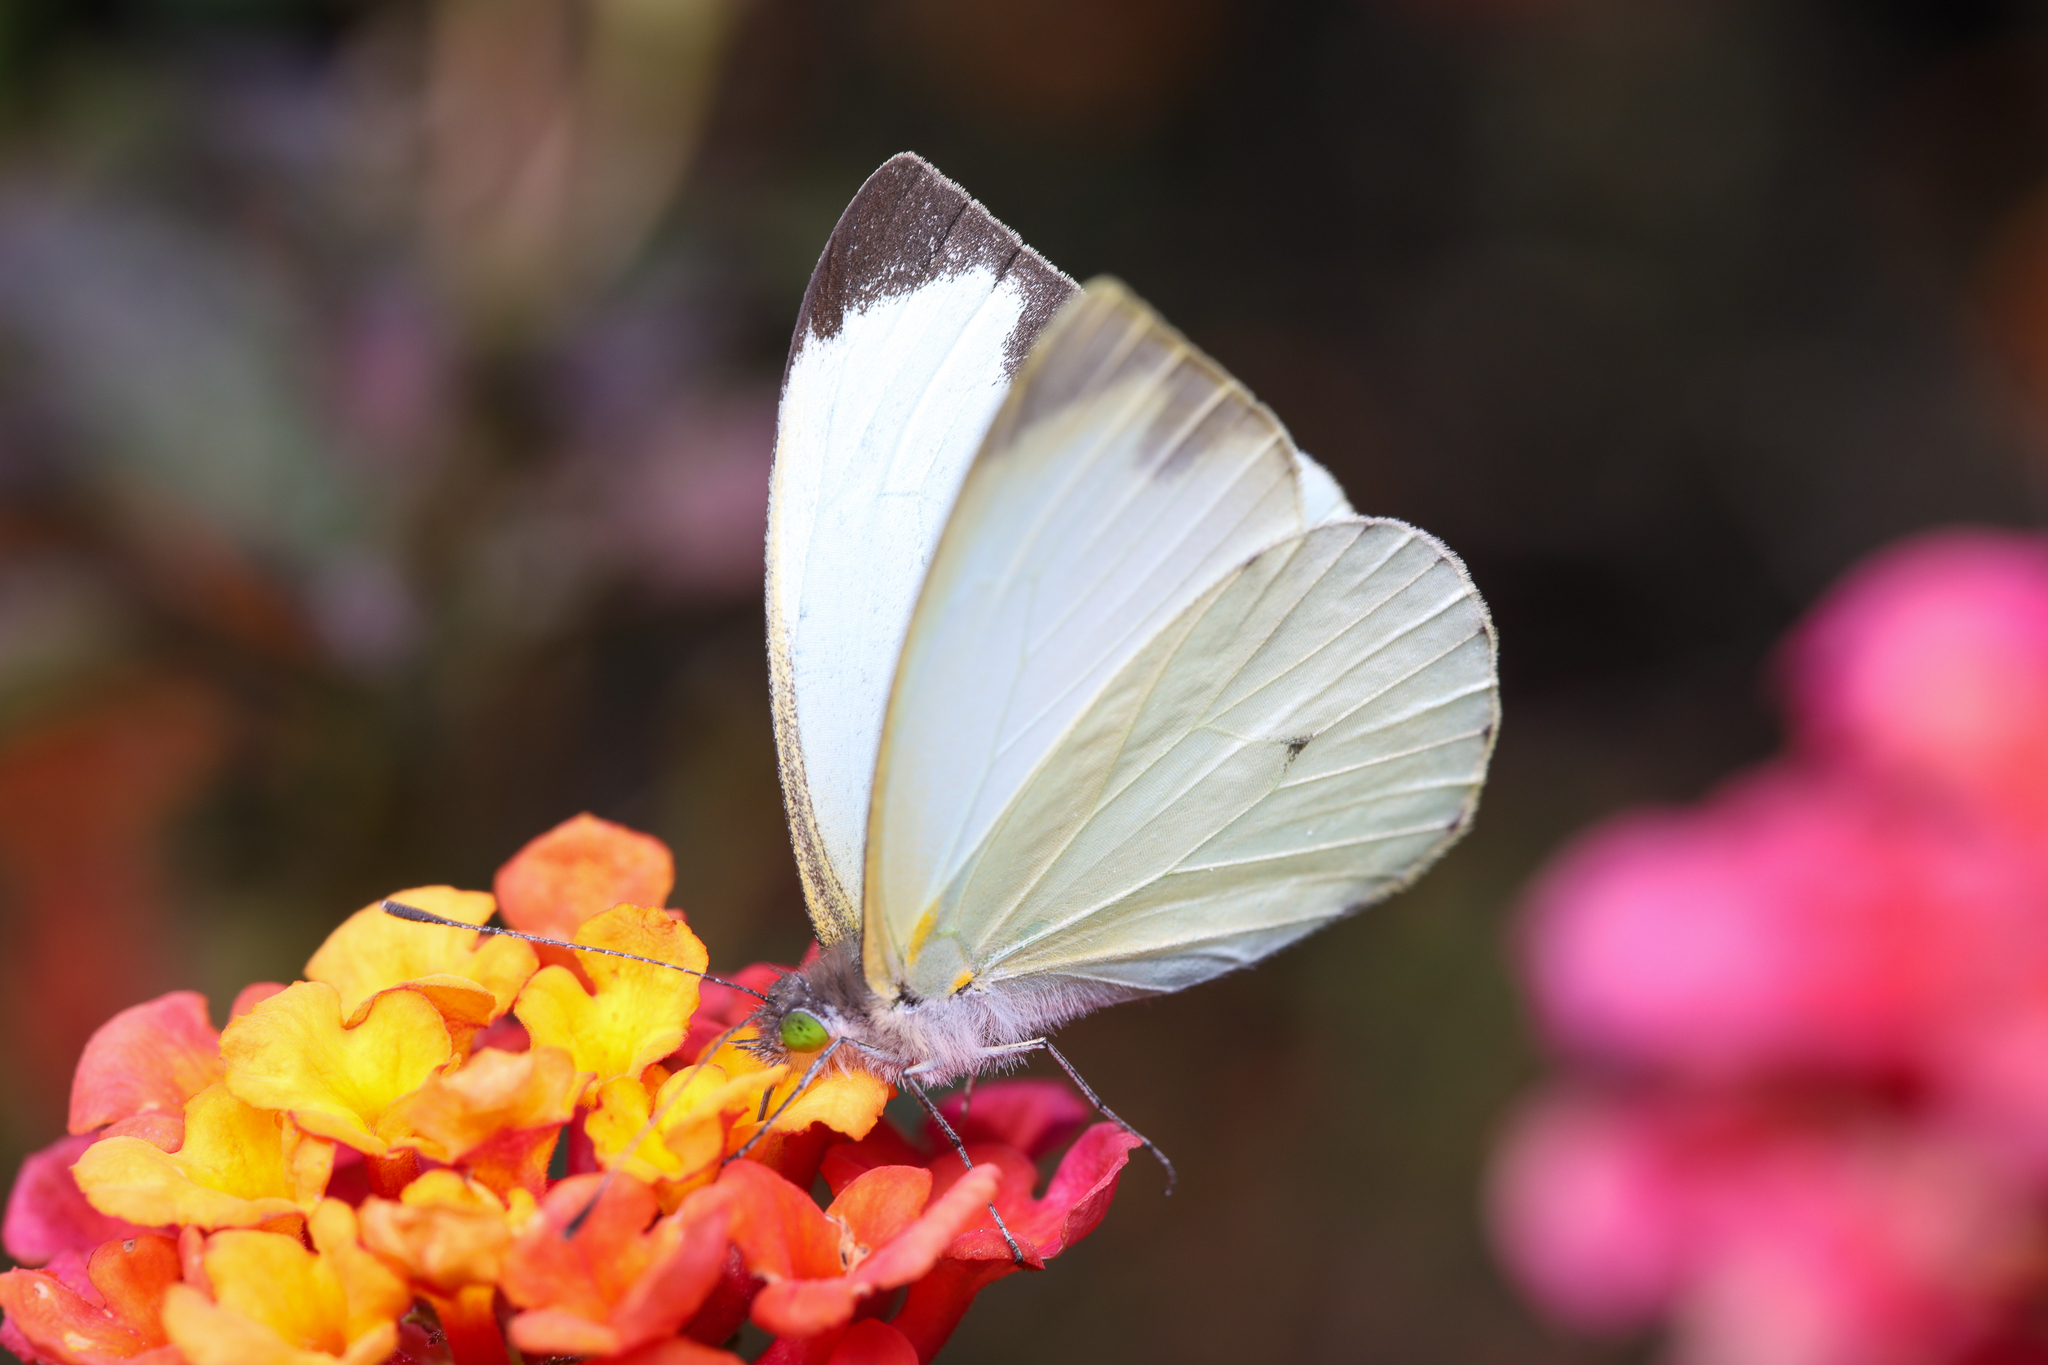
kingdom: Animalia
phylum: Arthropoda
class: Insecta
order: Lepidoptera
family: Pieridae
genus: Leptophobia
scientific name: Leptophobia aripa
